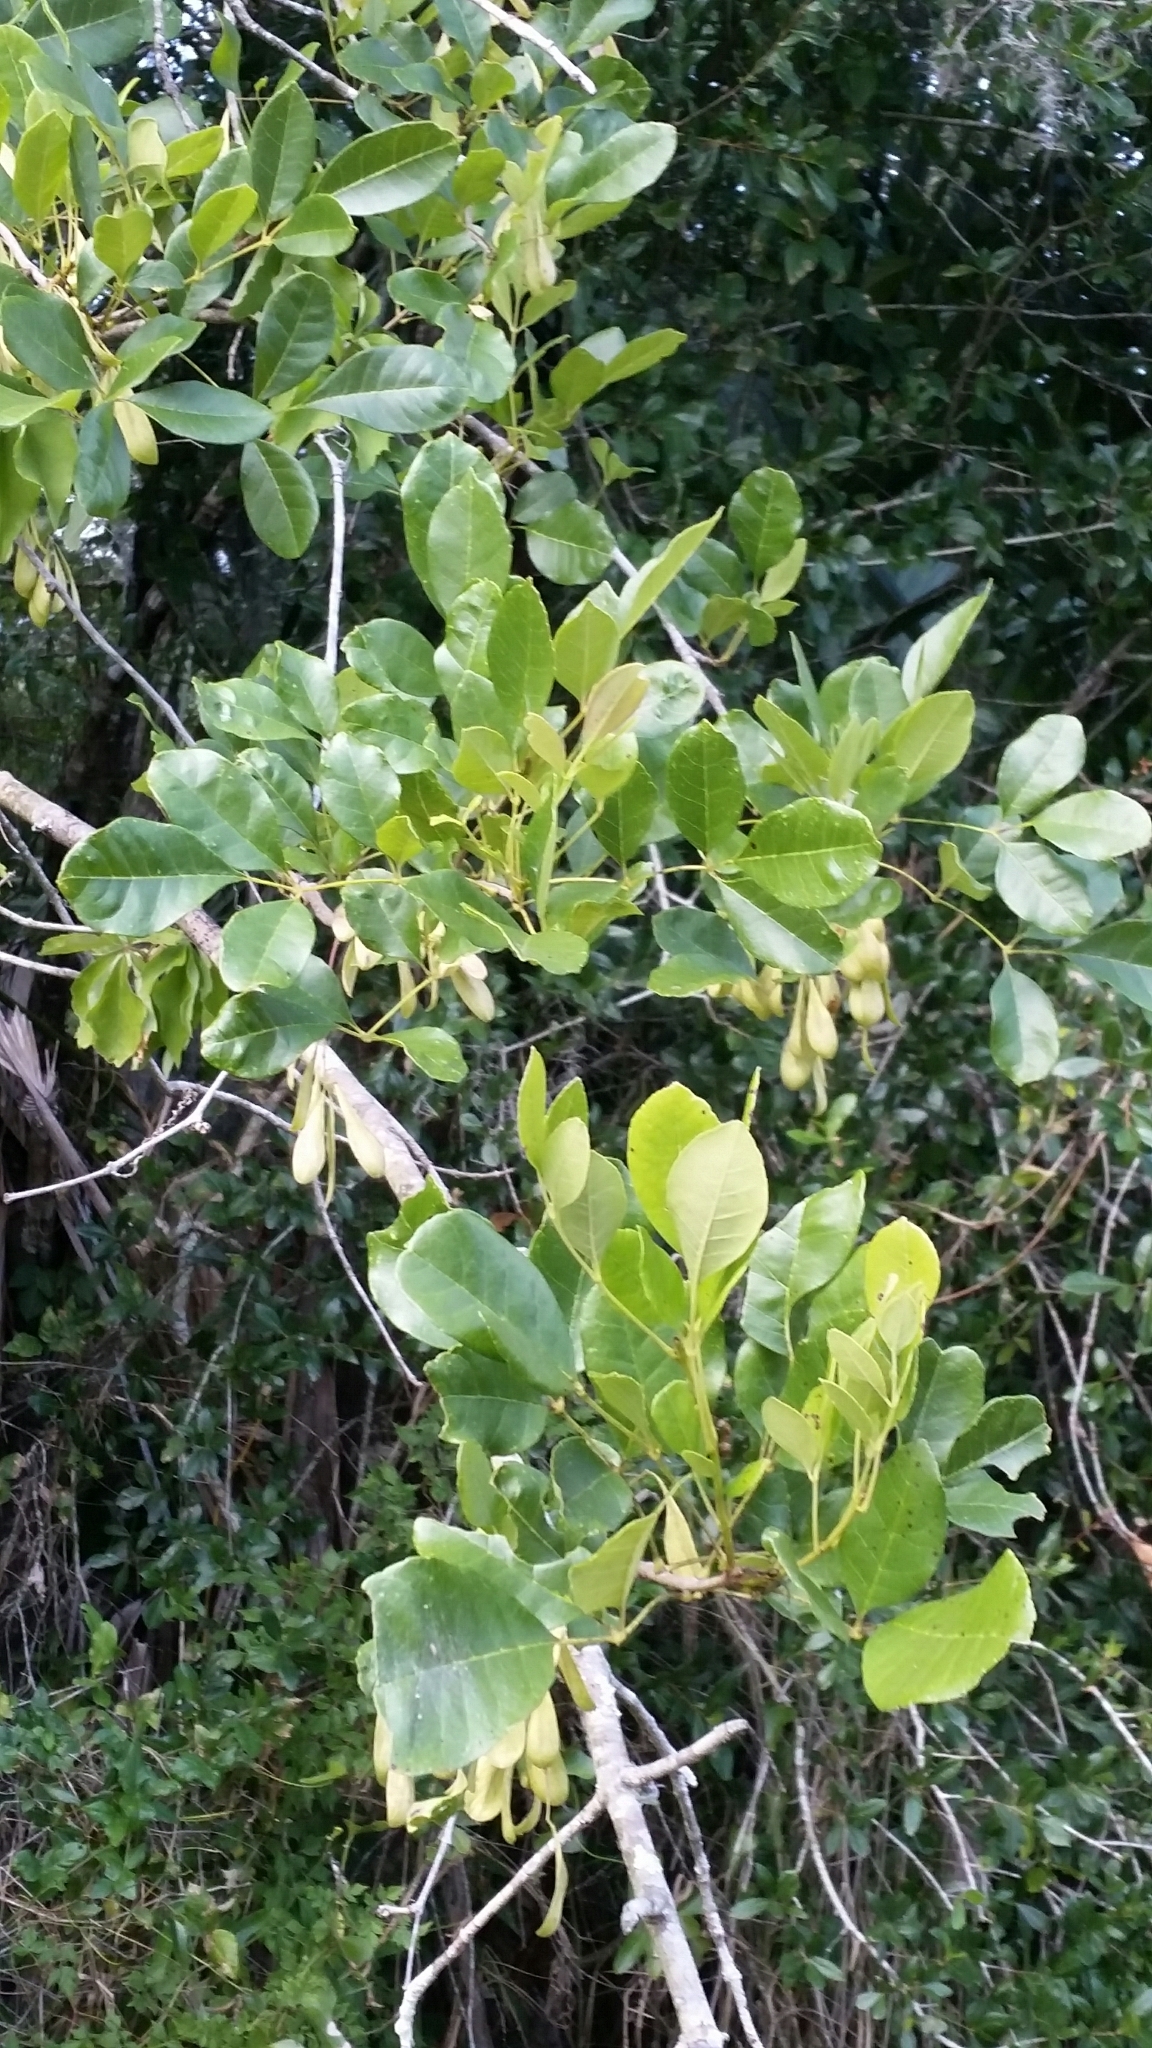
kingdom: Plantae
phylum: Tracheophyta
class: Magnoliopsida
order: Lamiales
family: Oleaceae
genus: Fraxinus
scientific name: Fraxinus caroliniana
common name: Carolina ash
